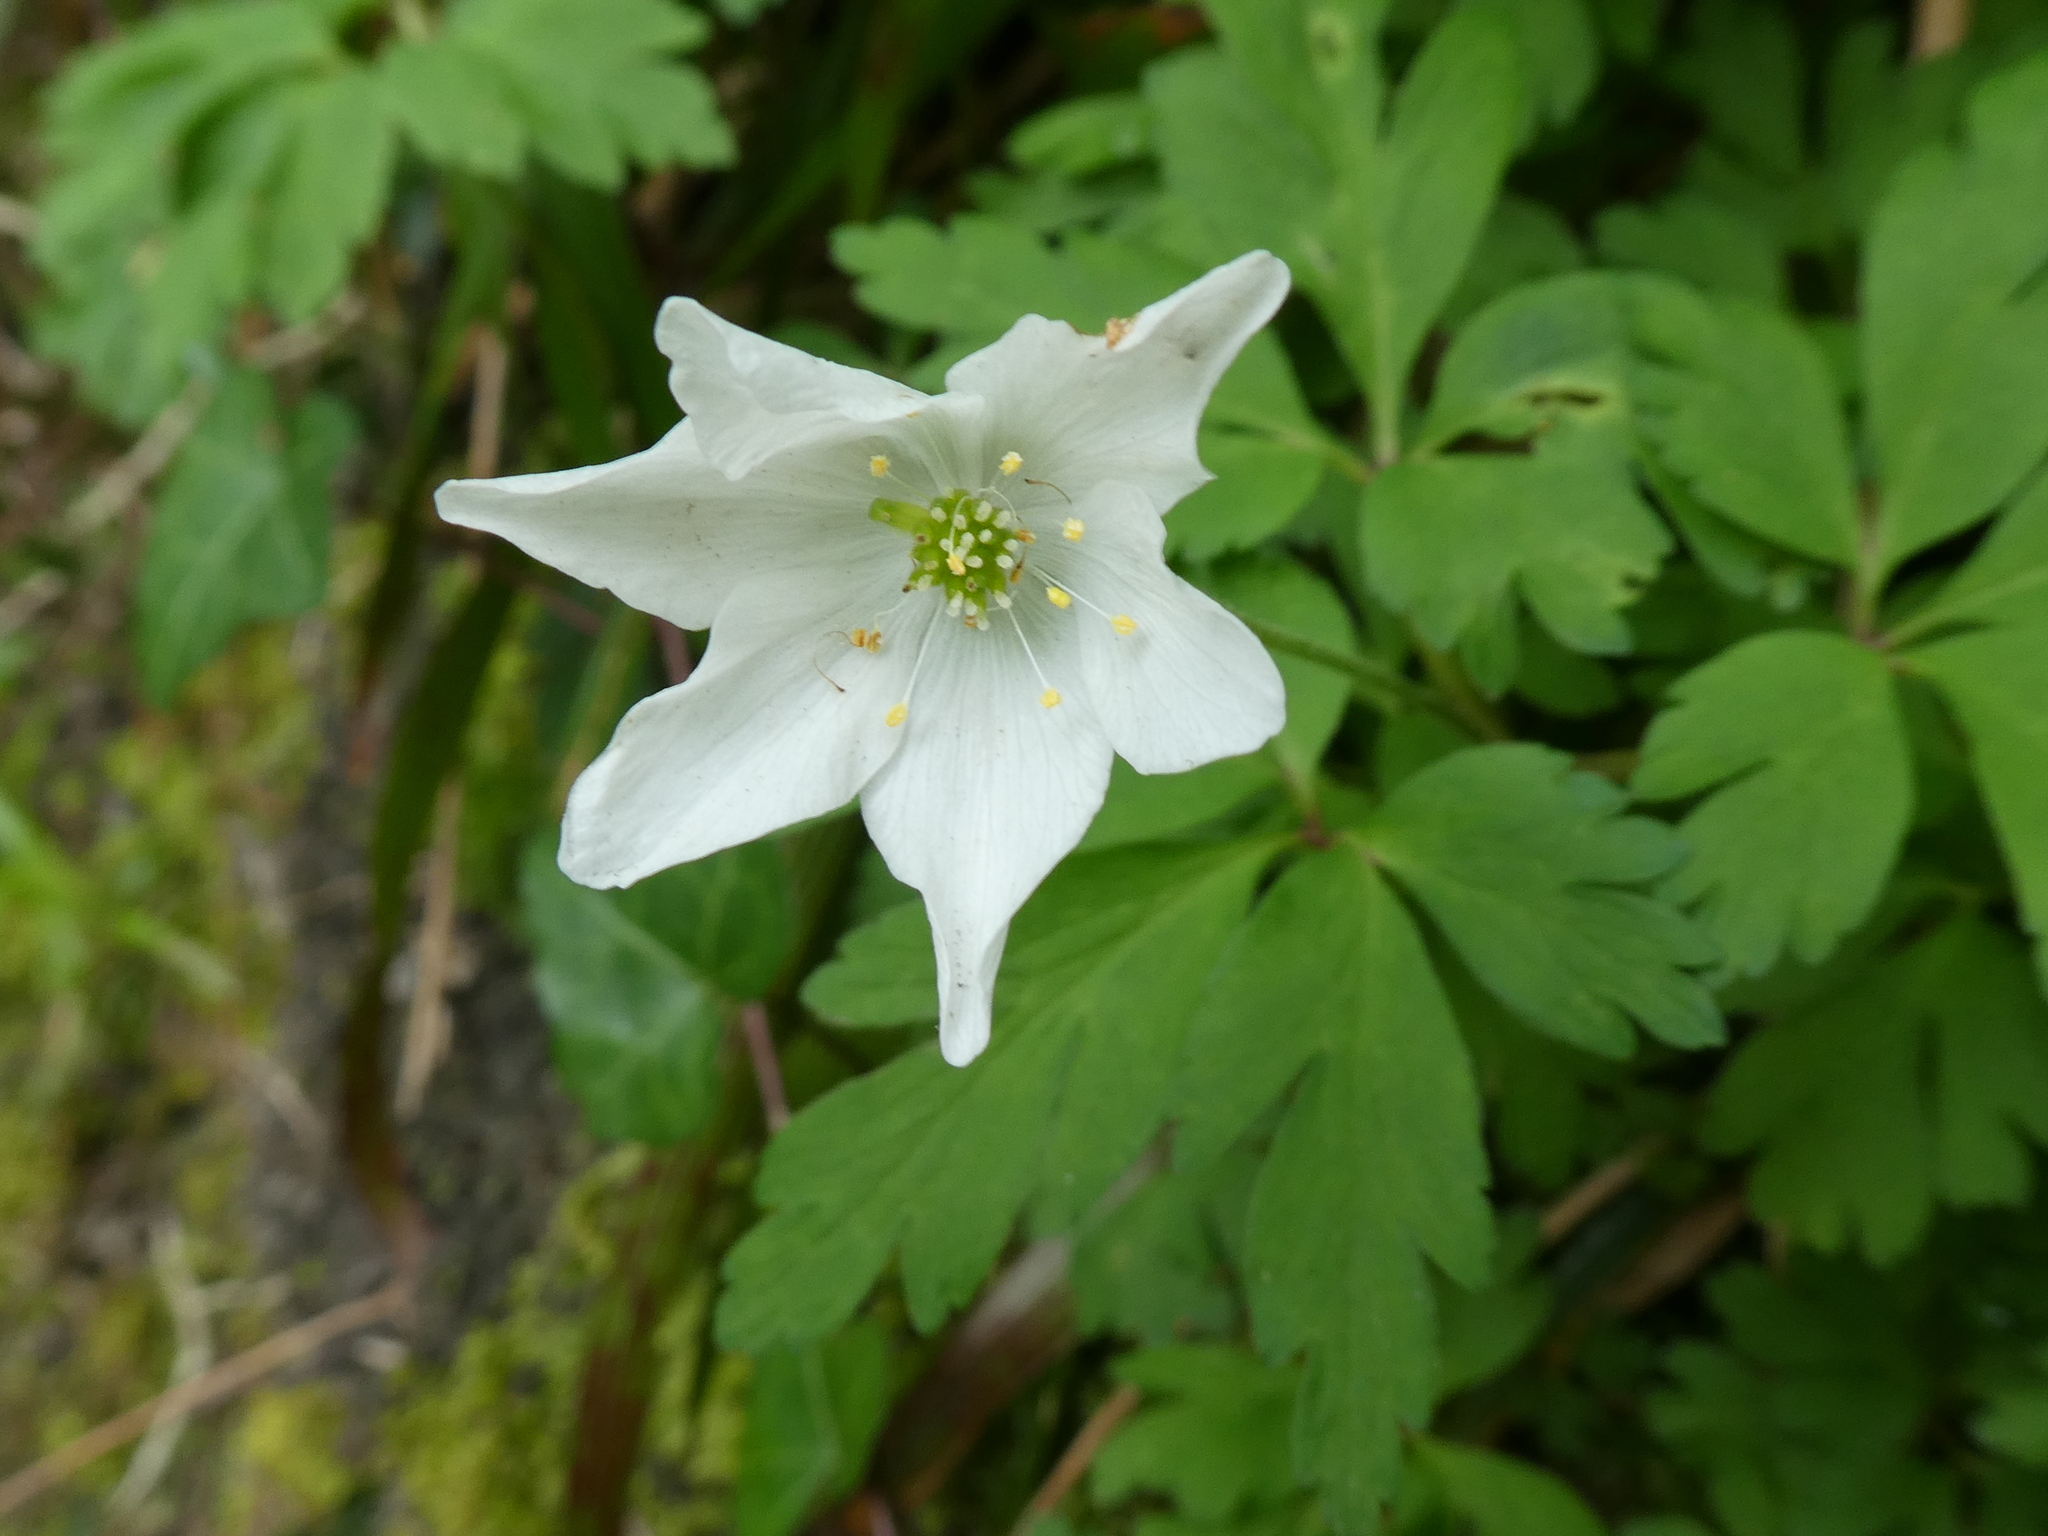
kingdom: Plantae
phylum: Tracheophyta
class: Magnoliopsida
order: Ranunculales
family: Ranunculaceae
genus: Anemone
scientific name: Anemone nemorosa
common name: Wood anemone
